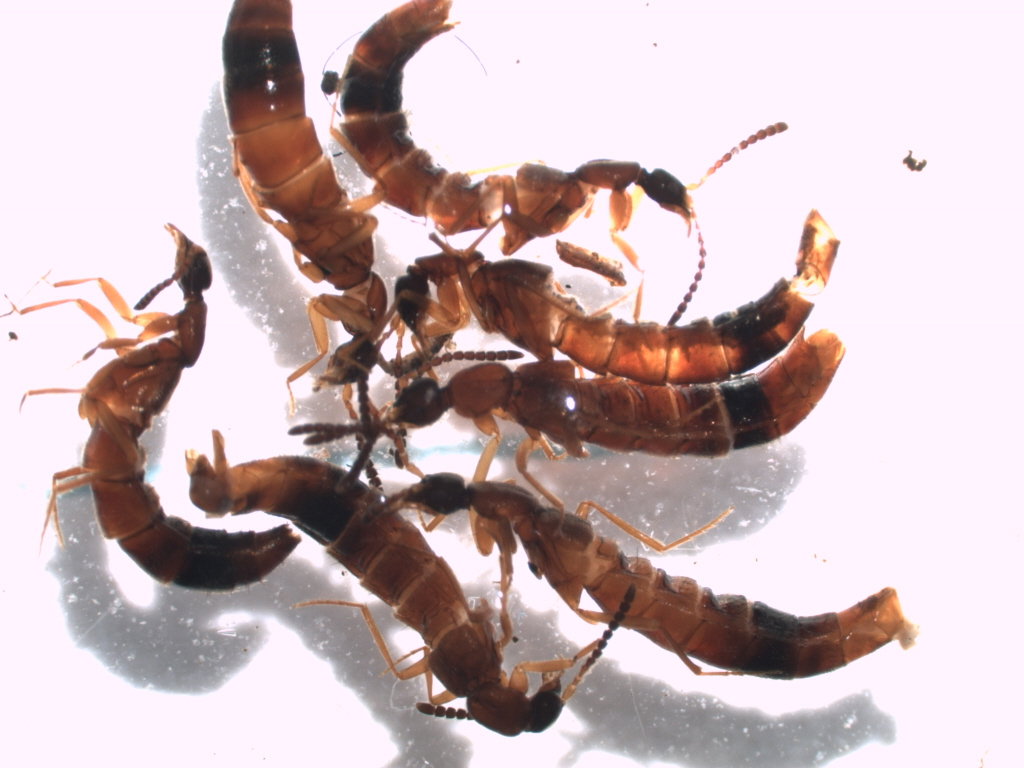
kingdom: Animalia
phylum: Arthropoda
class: Insecta
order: Coleoptera
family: Staphylinidae
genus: Drusilla
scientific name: Drusilla canaliculata
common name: Rove beetle
